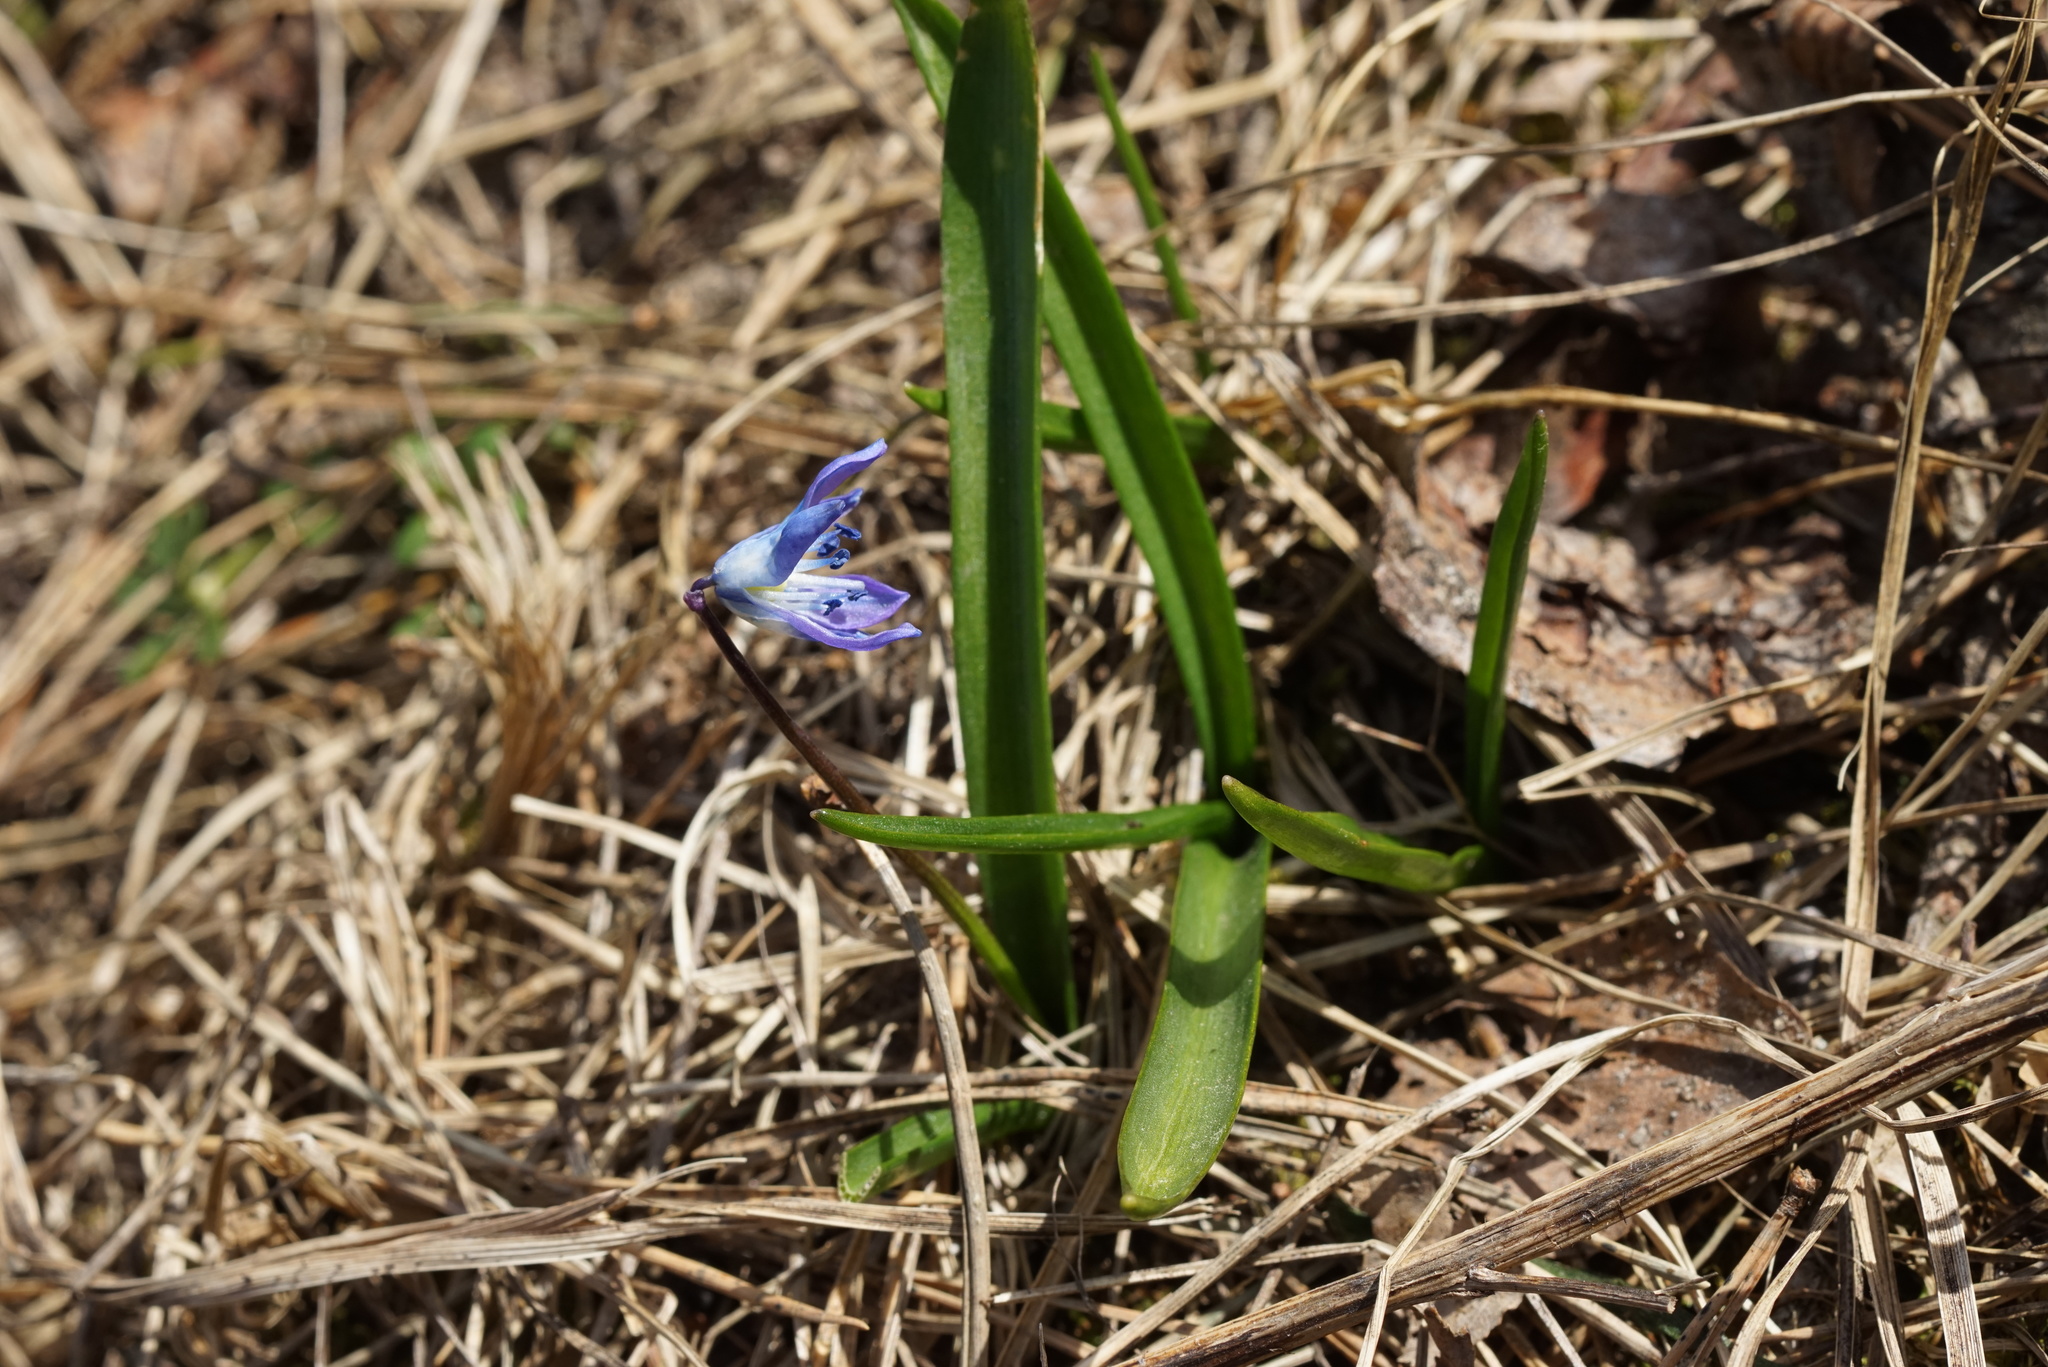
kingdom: Plantae
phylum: Tracheophyta
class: Liliopsida
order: Asparagales
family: Asparagaceae
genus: Scilla
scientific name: Scilla siberica
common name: Siberian squill
